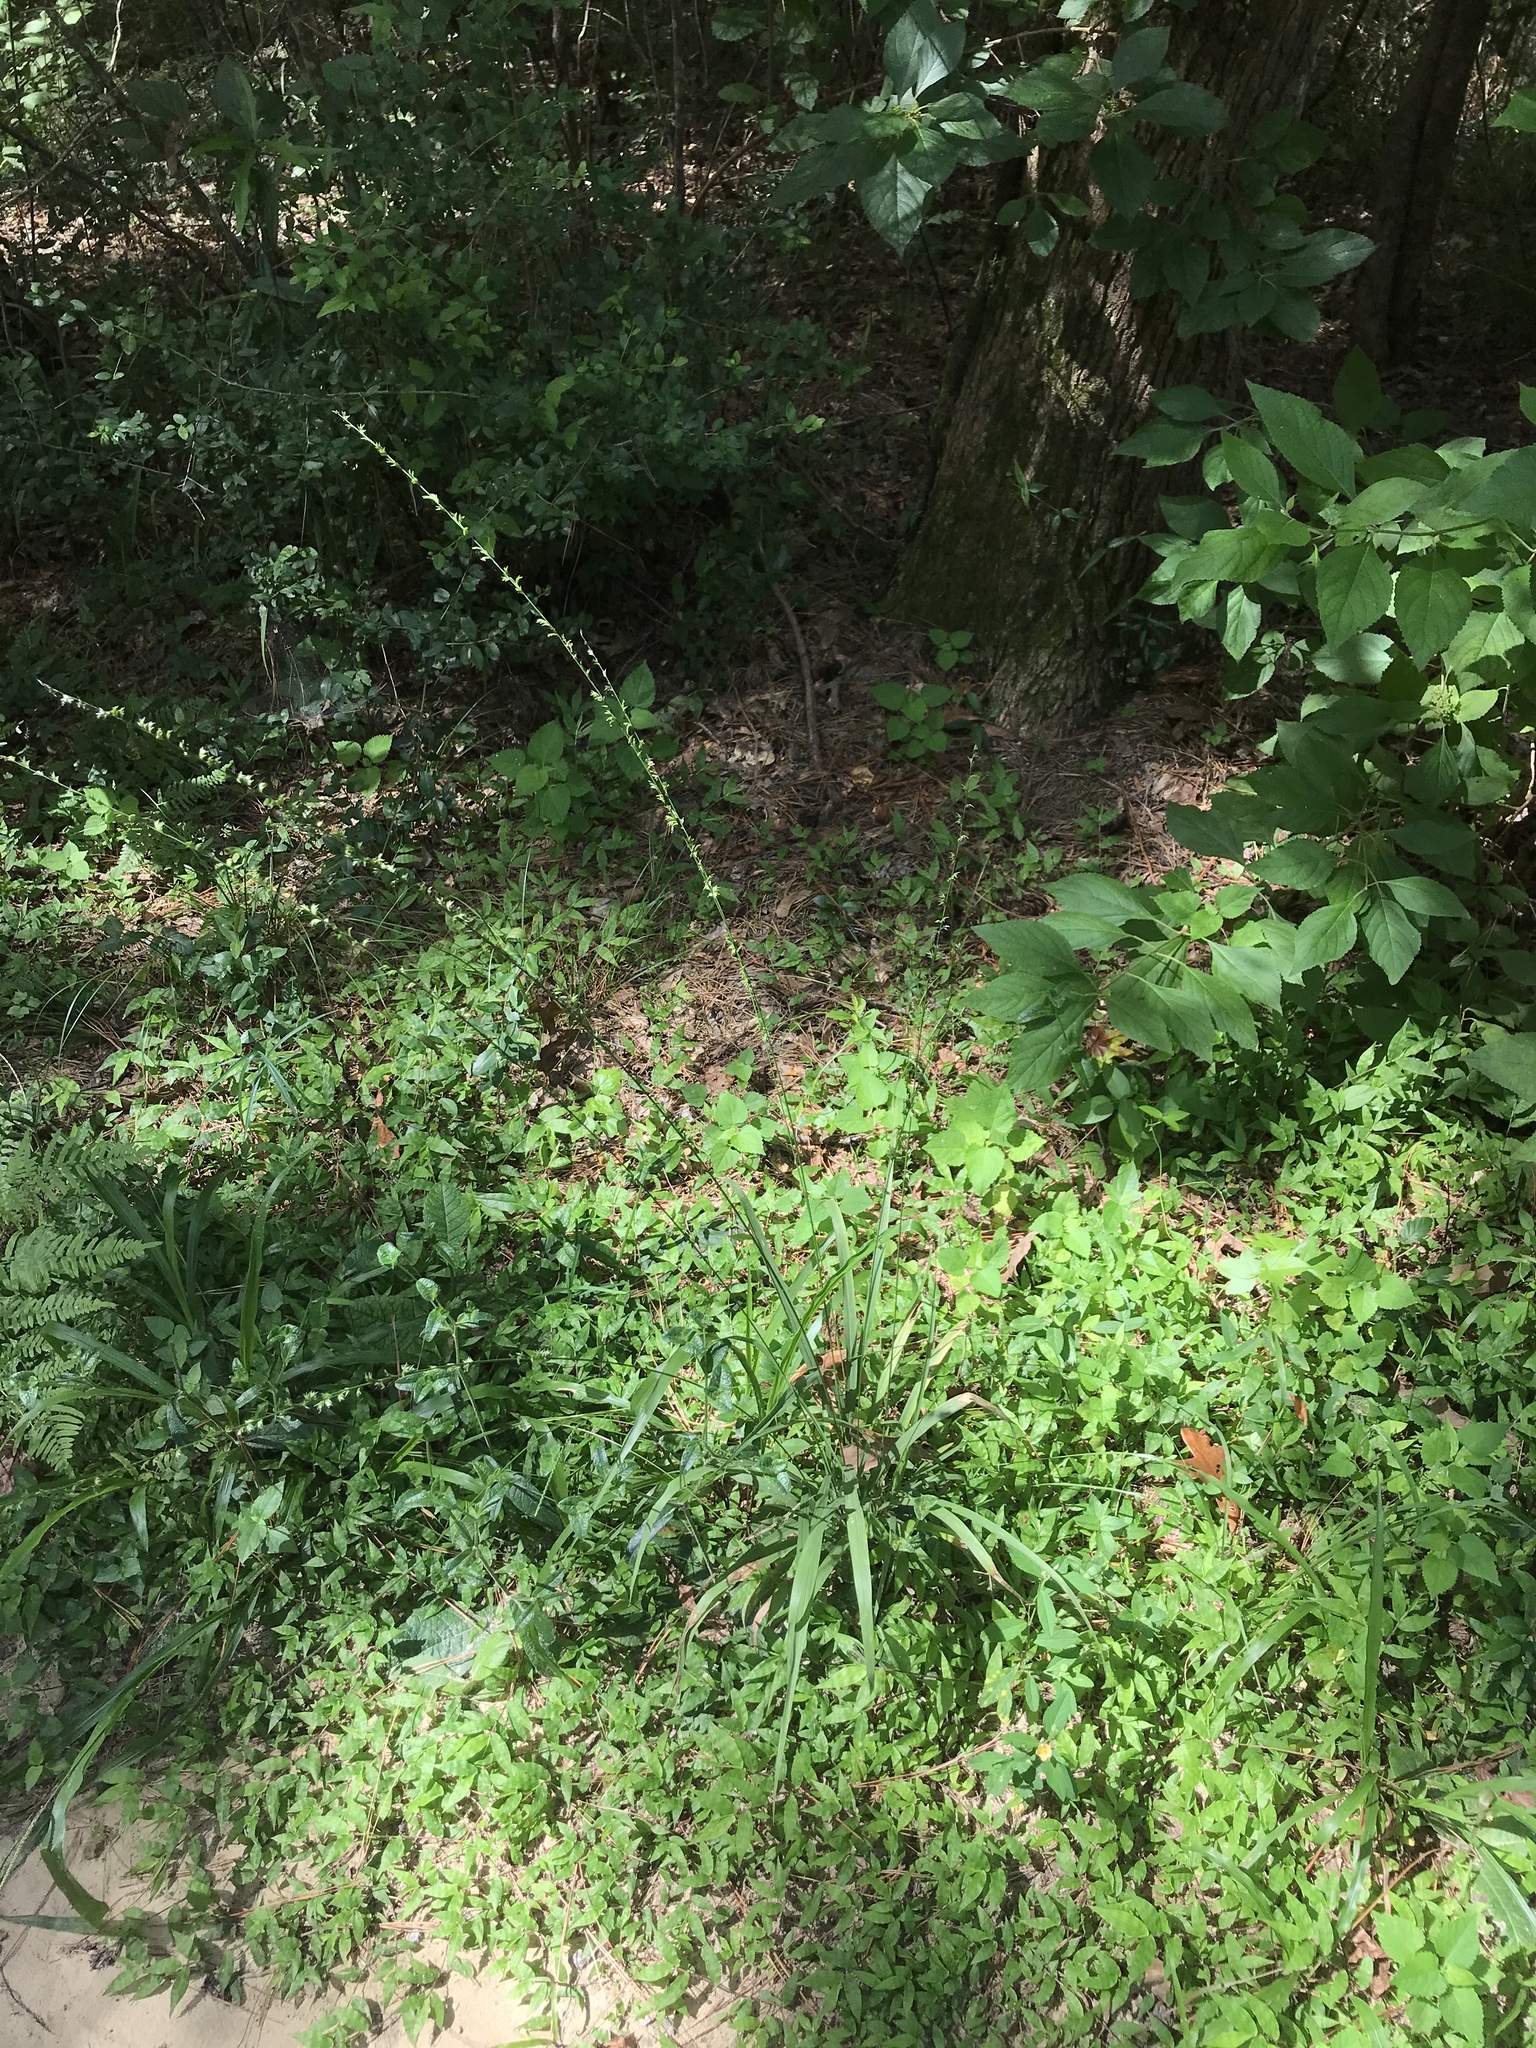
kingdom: Plantae
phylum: Tracheophyta
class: Liliopsida
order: Poales
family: Poaceae
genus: Chasmanthium
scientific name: Chasmanthium laxum
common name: Slender chasmanthium
